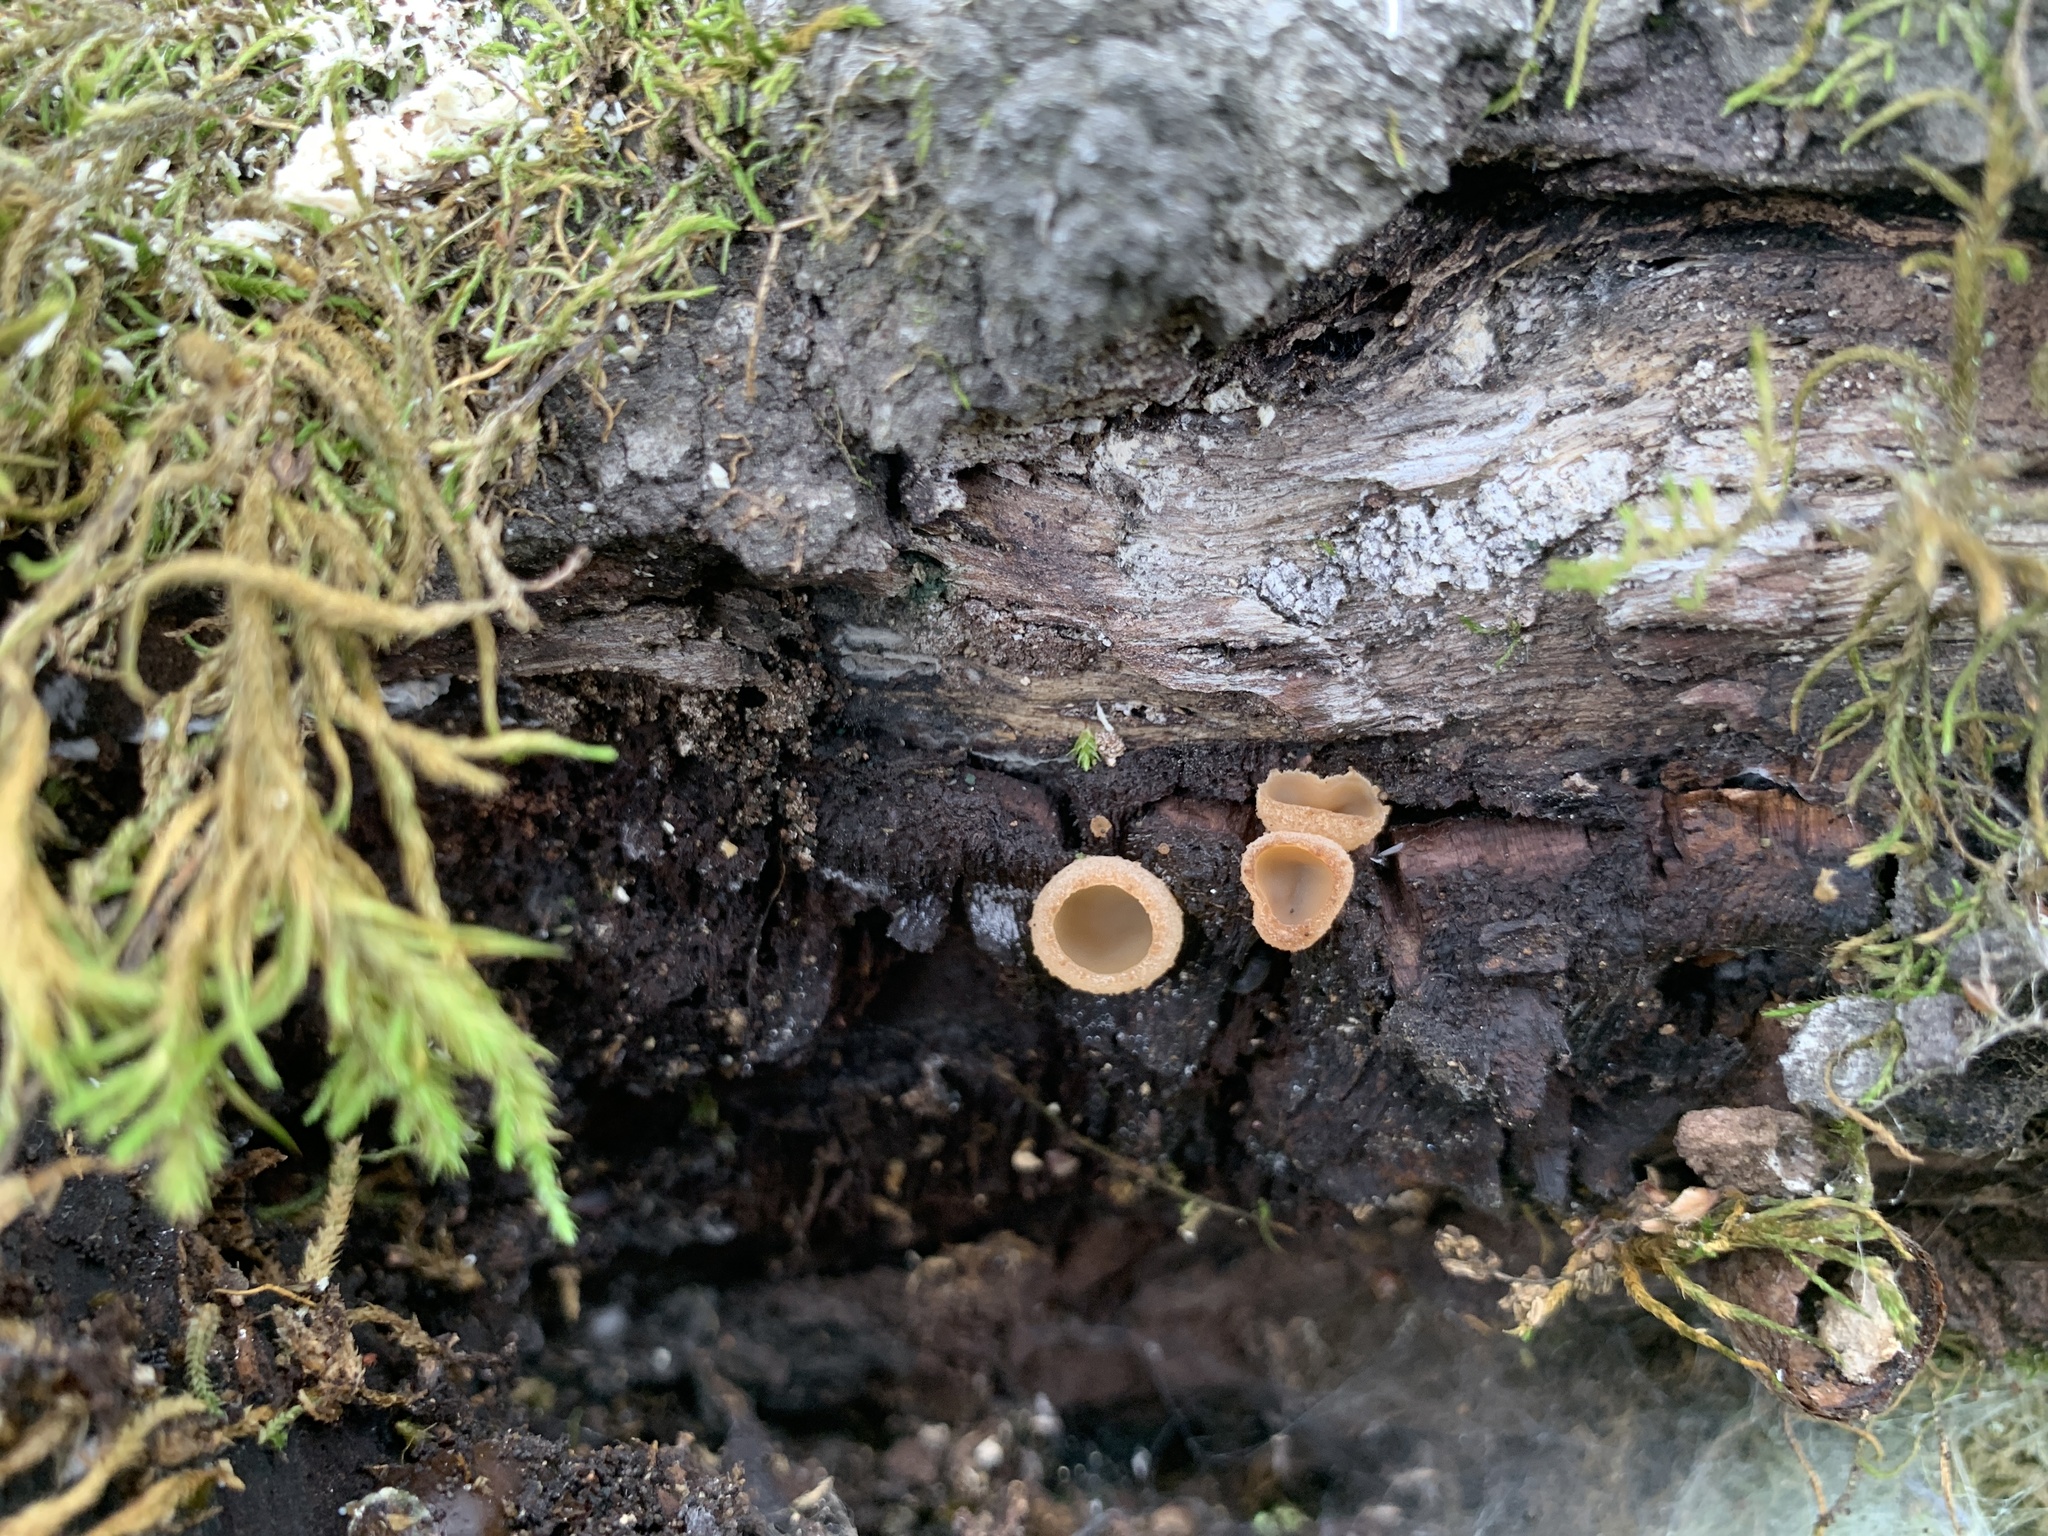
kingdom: Fungi
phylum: Ascomycota
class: Pezizomycetes
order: Pezizales
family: Pezizaceae
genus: Peziza
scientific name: Peziza vesiculosa
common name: Blistered cup
